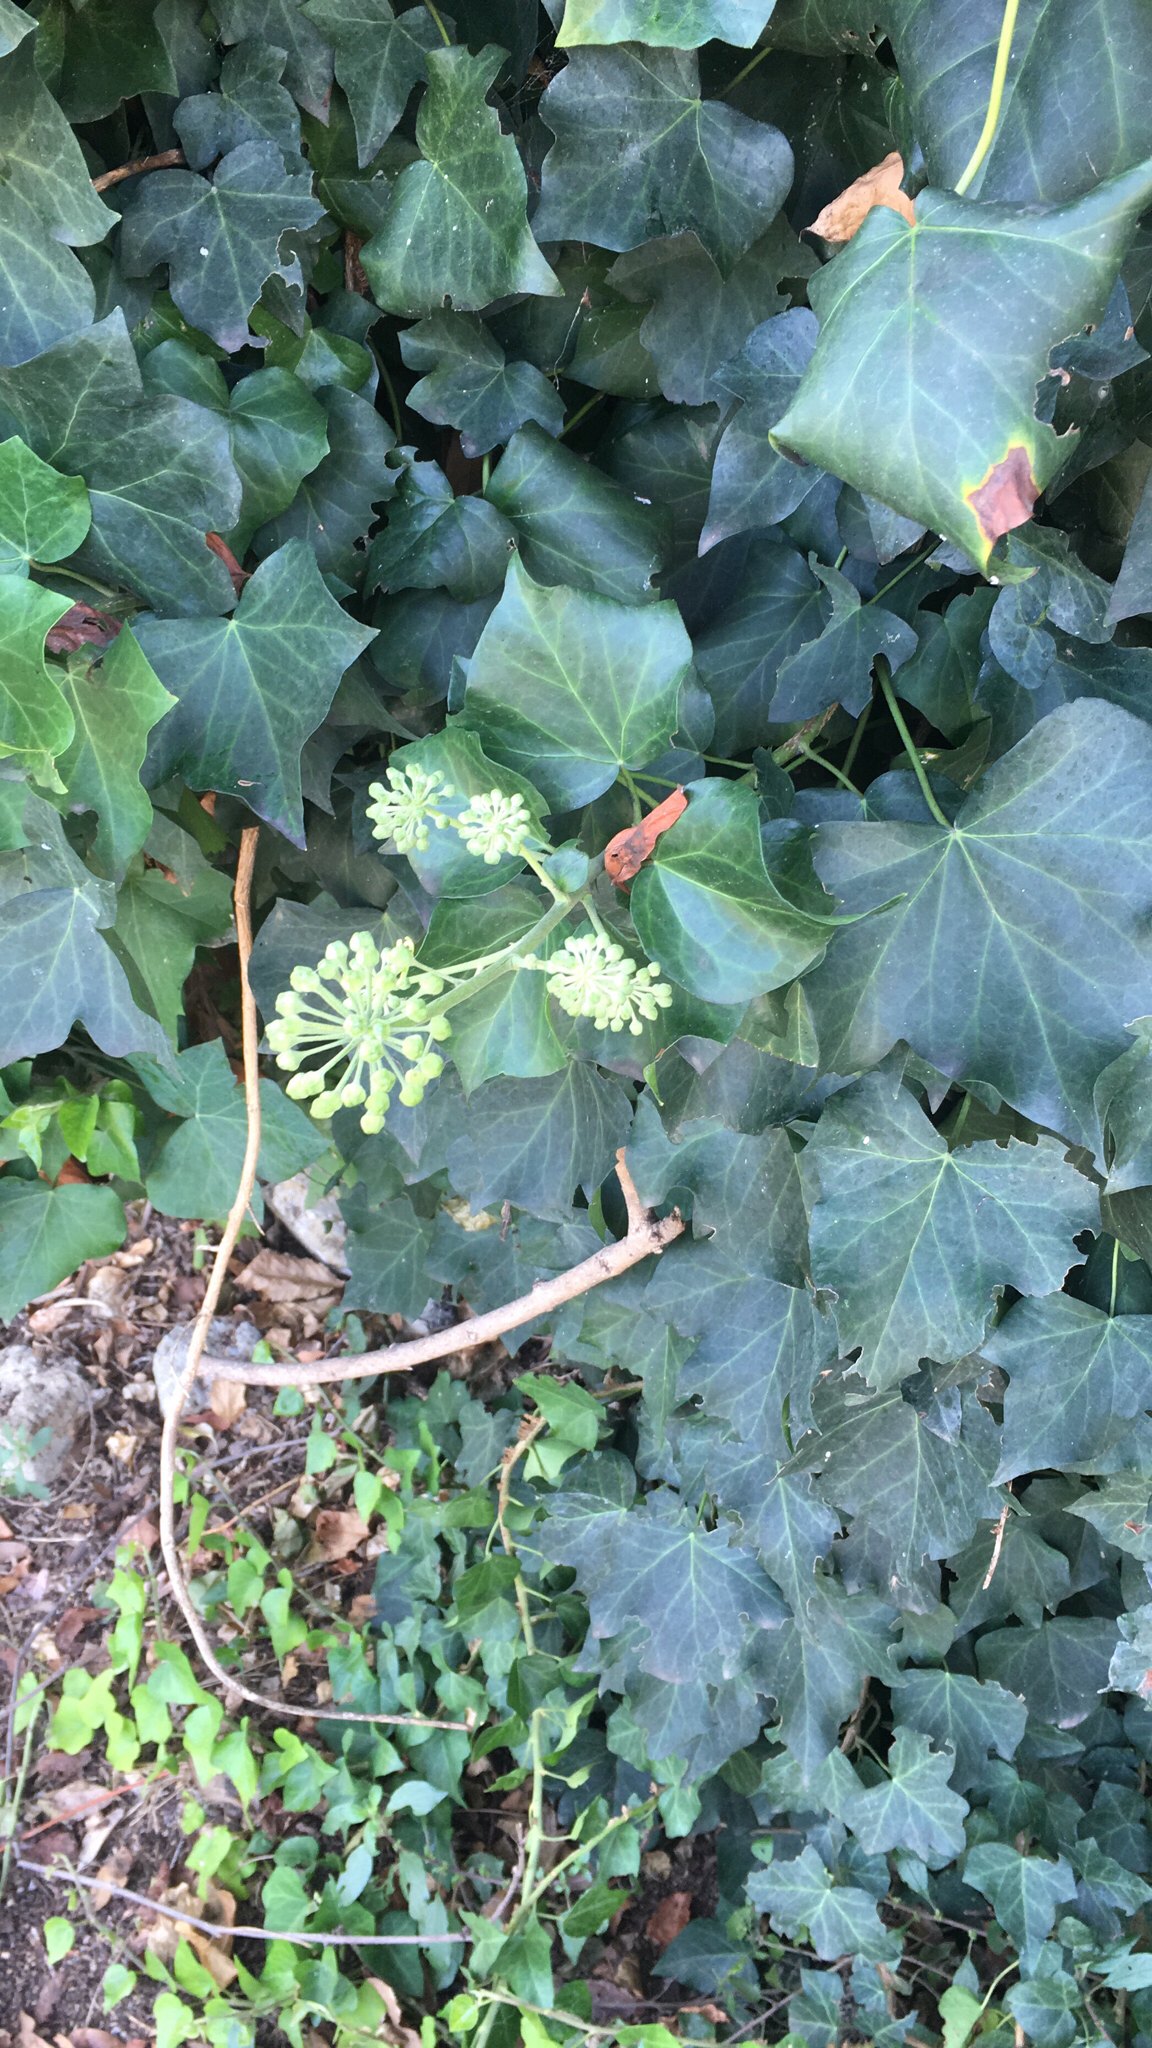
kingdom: Plantae
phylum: Tracheophyta
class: Magnoliopsida
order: Apiales
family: Araliaceae
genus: Hedera
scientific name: Hedera helix
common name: Ivy
